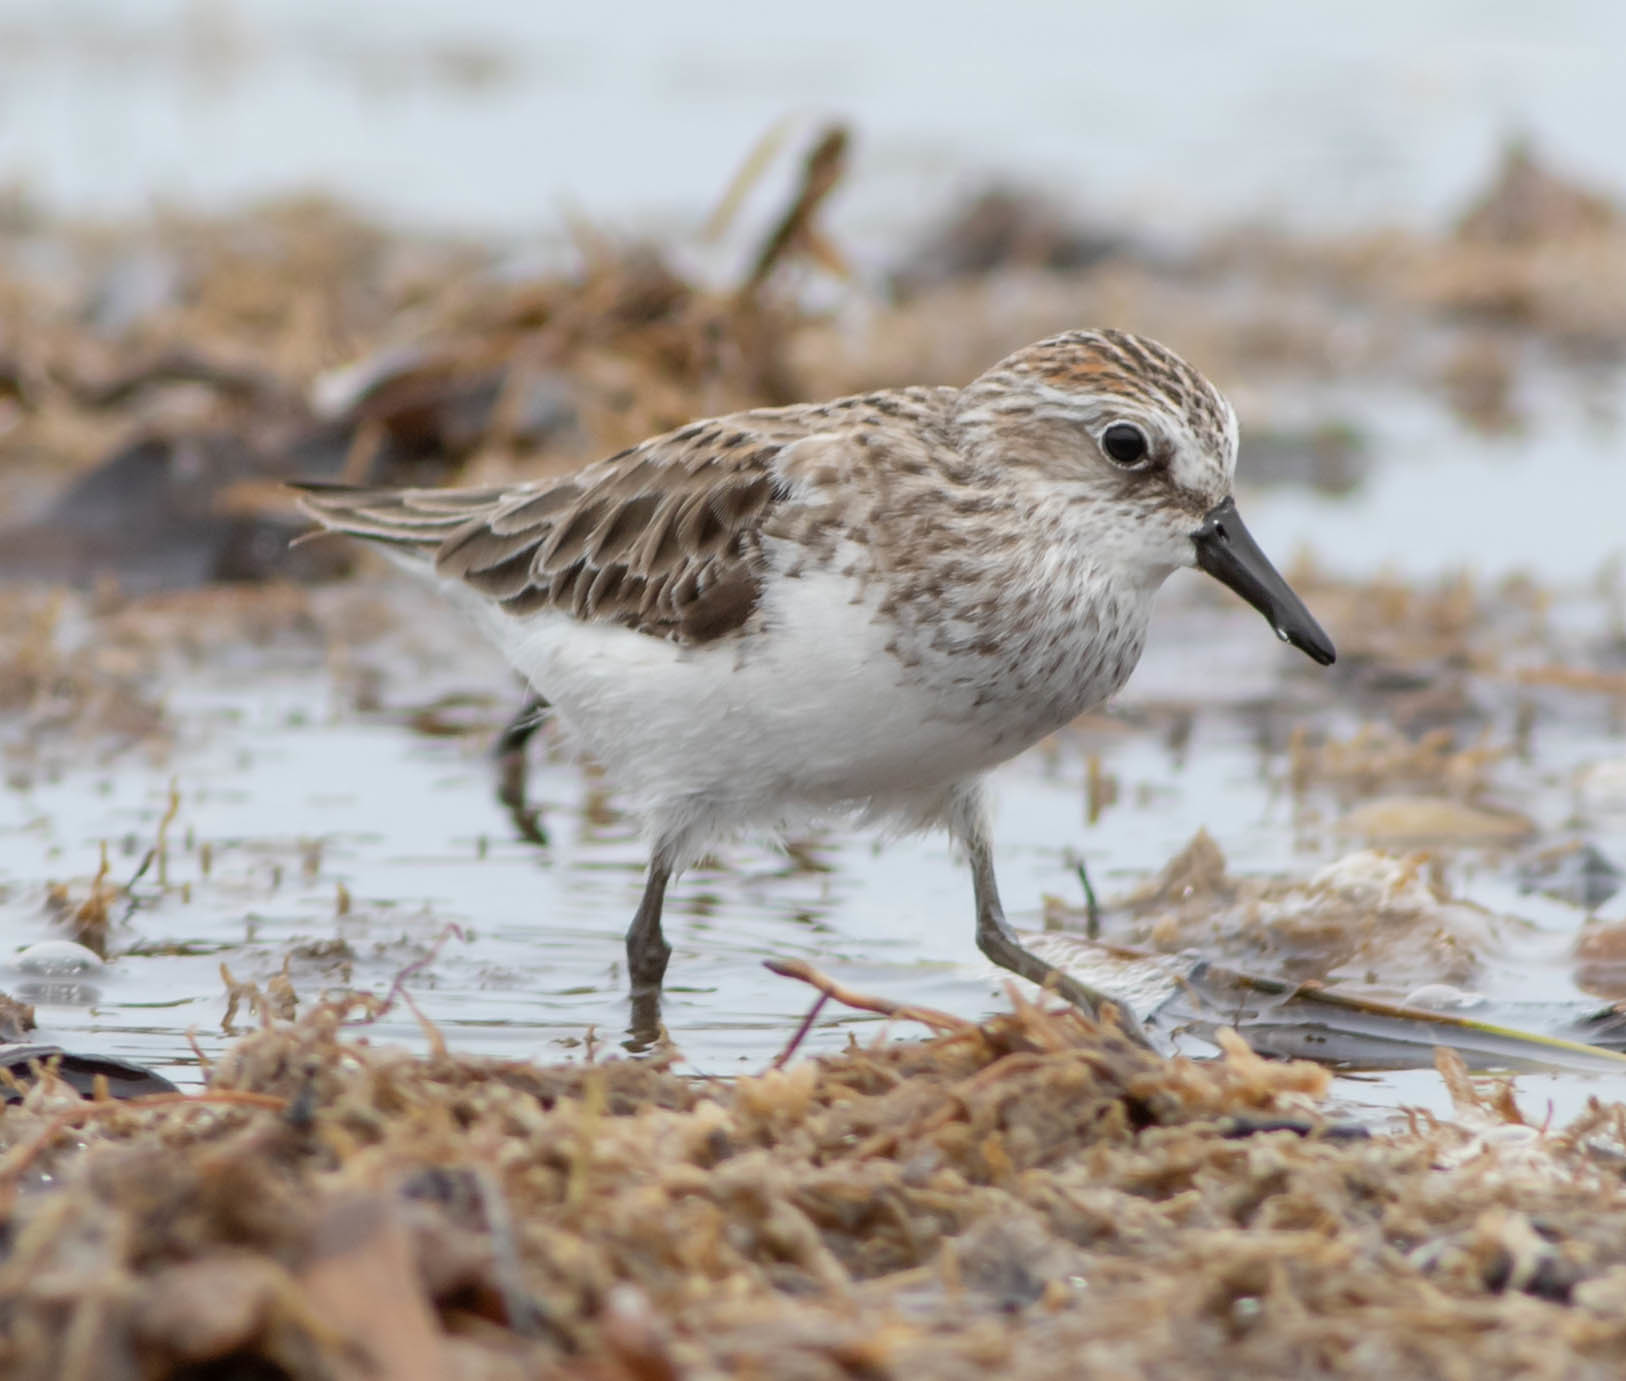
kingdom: Animalia
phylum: Chordata
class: Aves
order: Charadriiformes
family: Scolopacidae
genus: Calidris
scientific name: Calidris pusilla
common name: Semipalmated sandpiper
